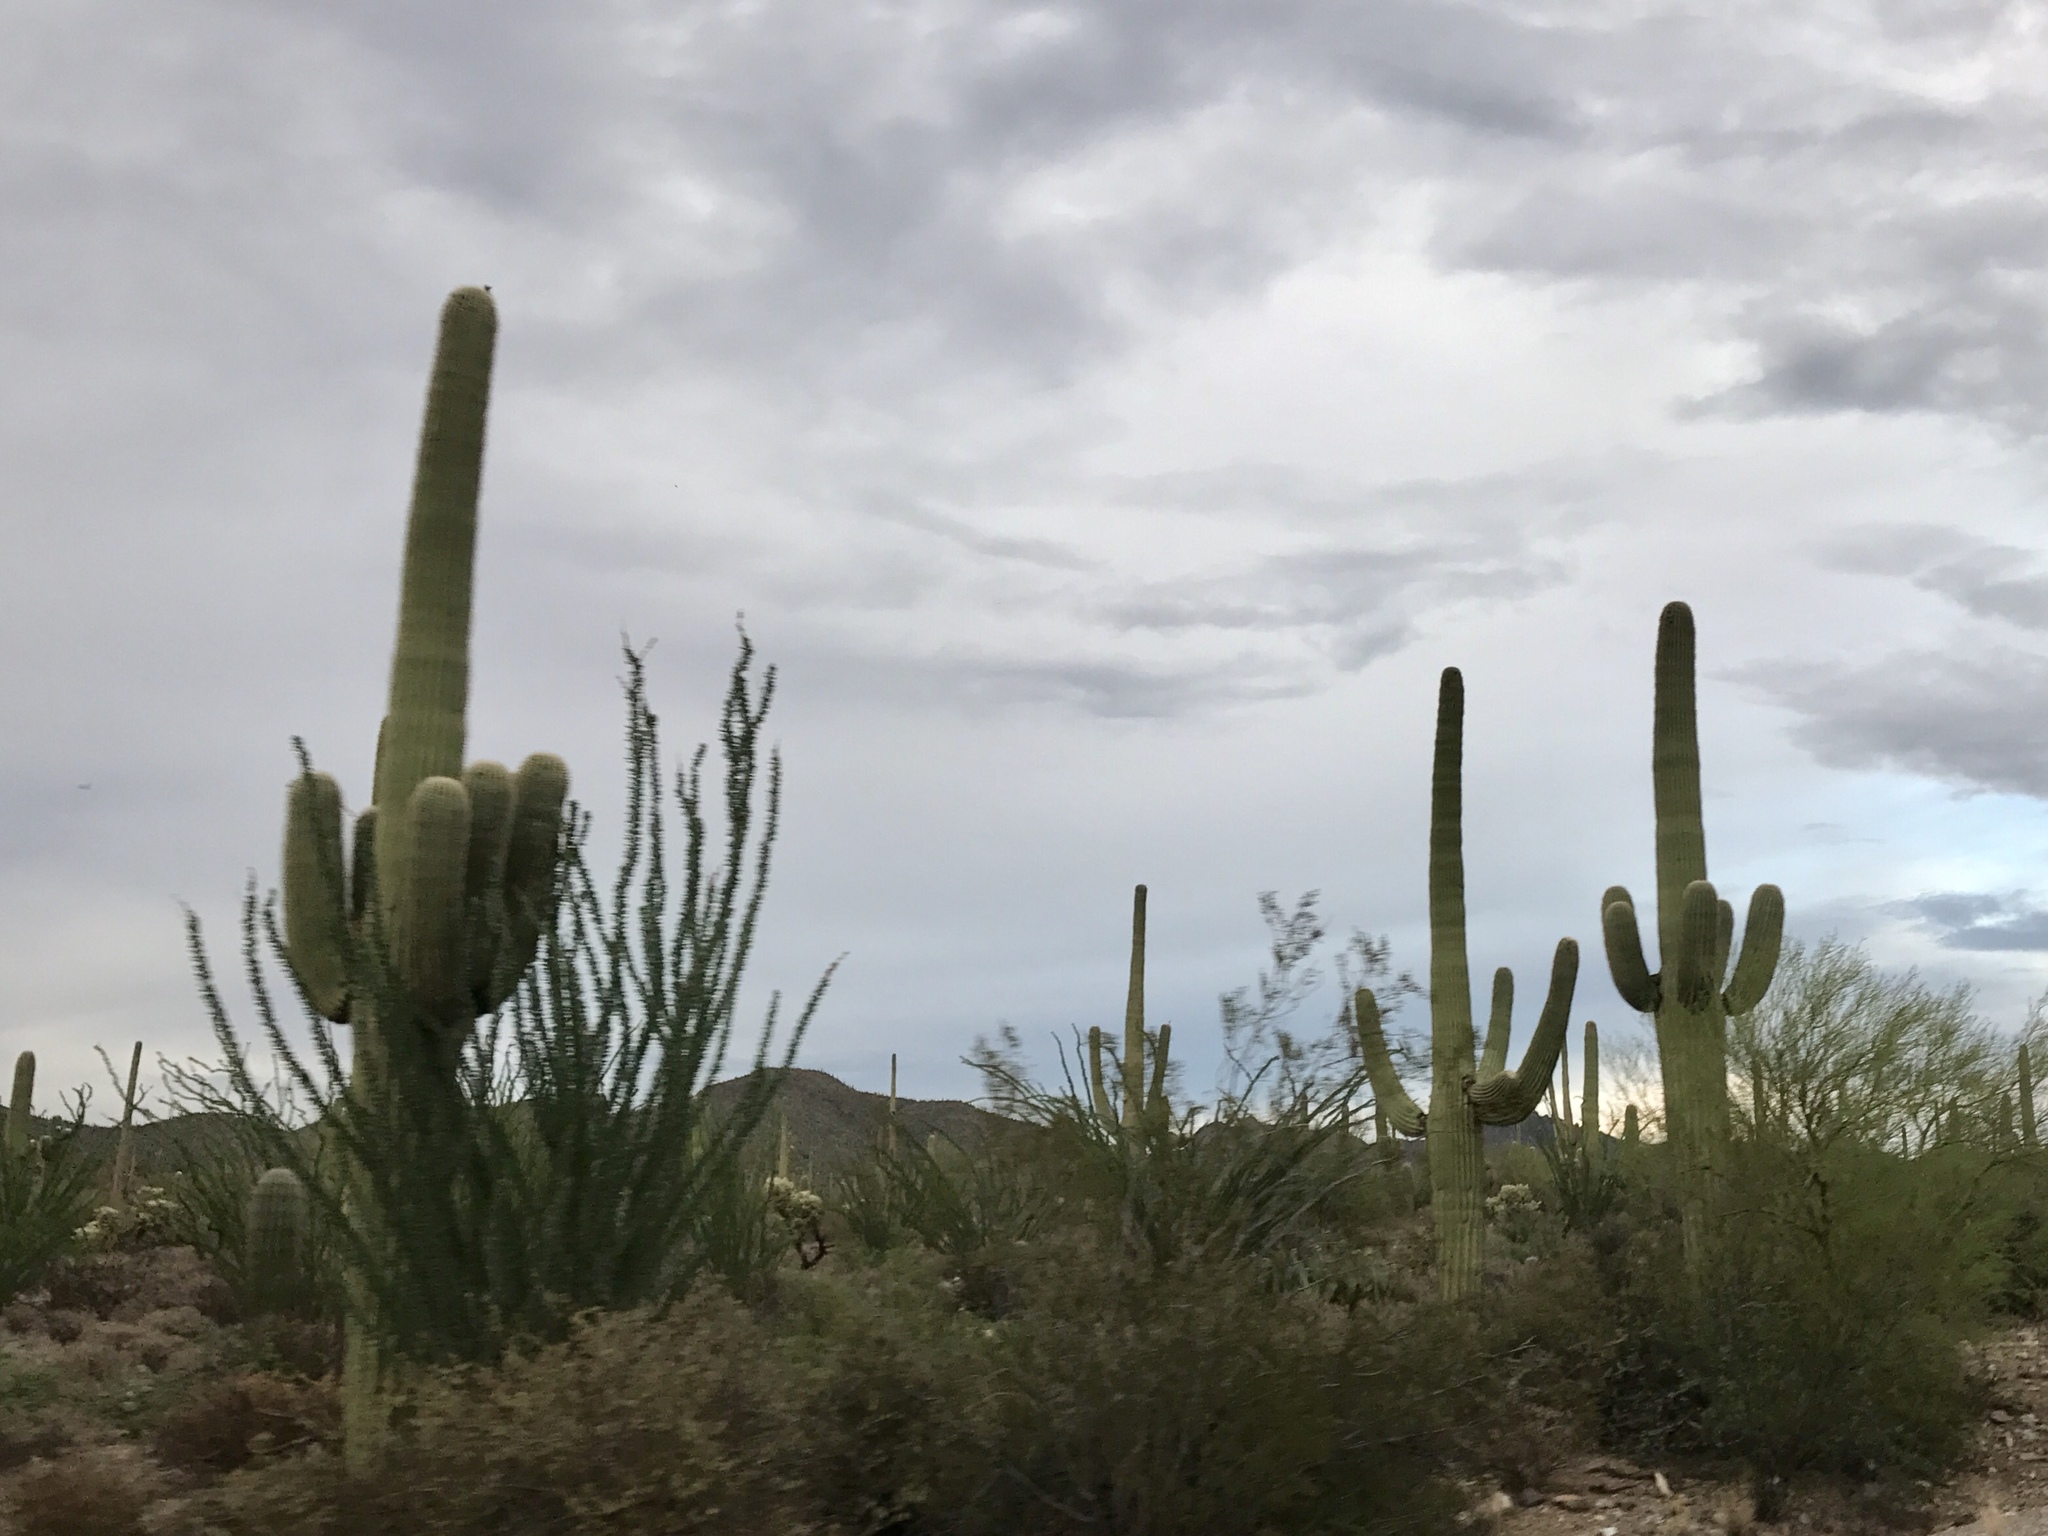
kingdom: Plantae
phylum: Tracheophyta
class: Magnoliopsida
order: Caryophyllales
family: Cactaceae
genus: Carnegiea
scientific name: Carnegiea gigantea
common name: Saguaro
